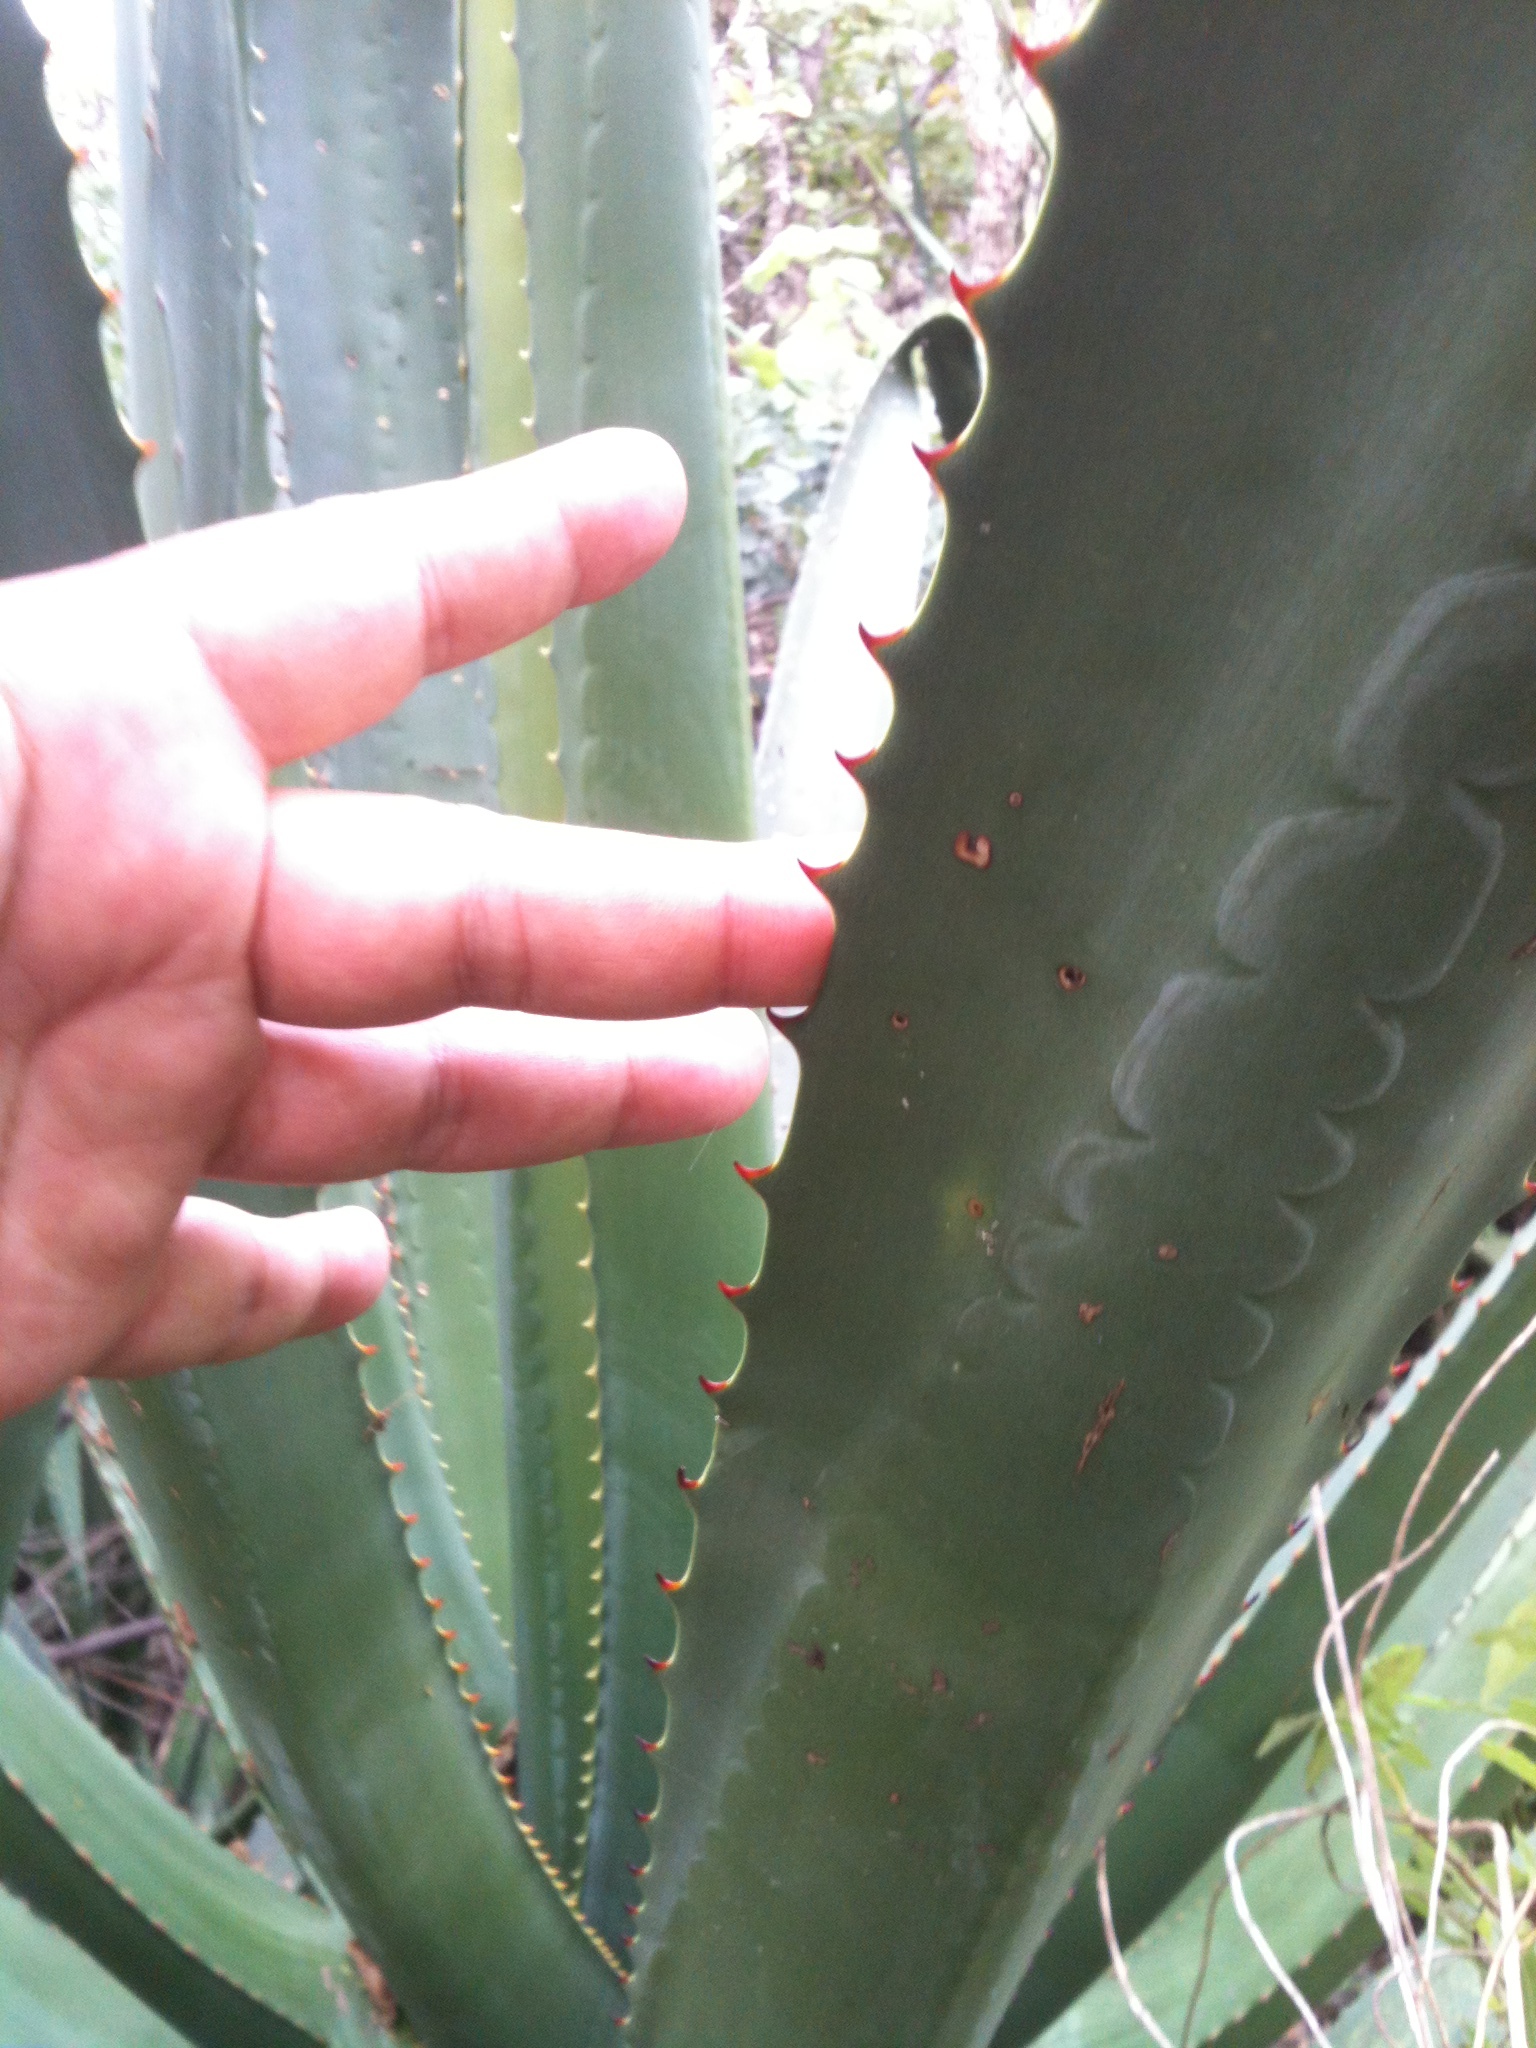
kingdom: Plantae
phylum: Tracheophyta
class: Liliopsida
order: Asparagales
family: Asparagaceae
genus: Furcraea
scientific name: Furcraea macdougallii
